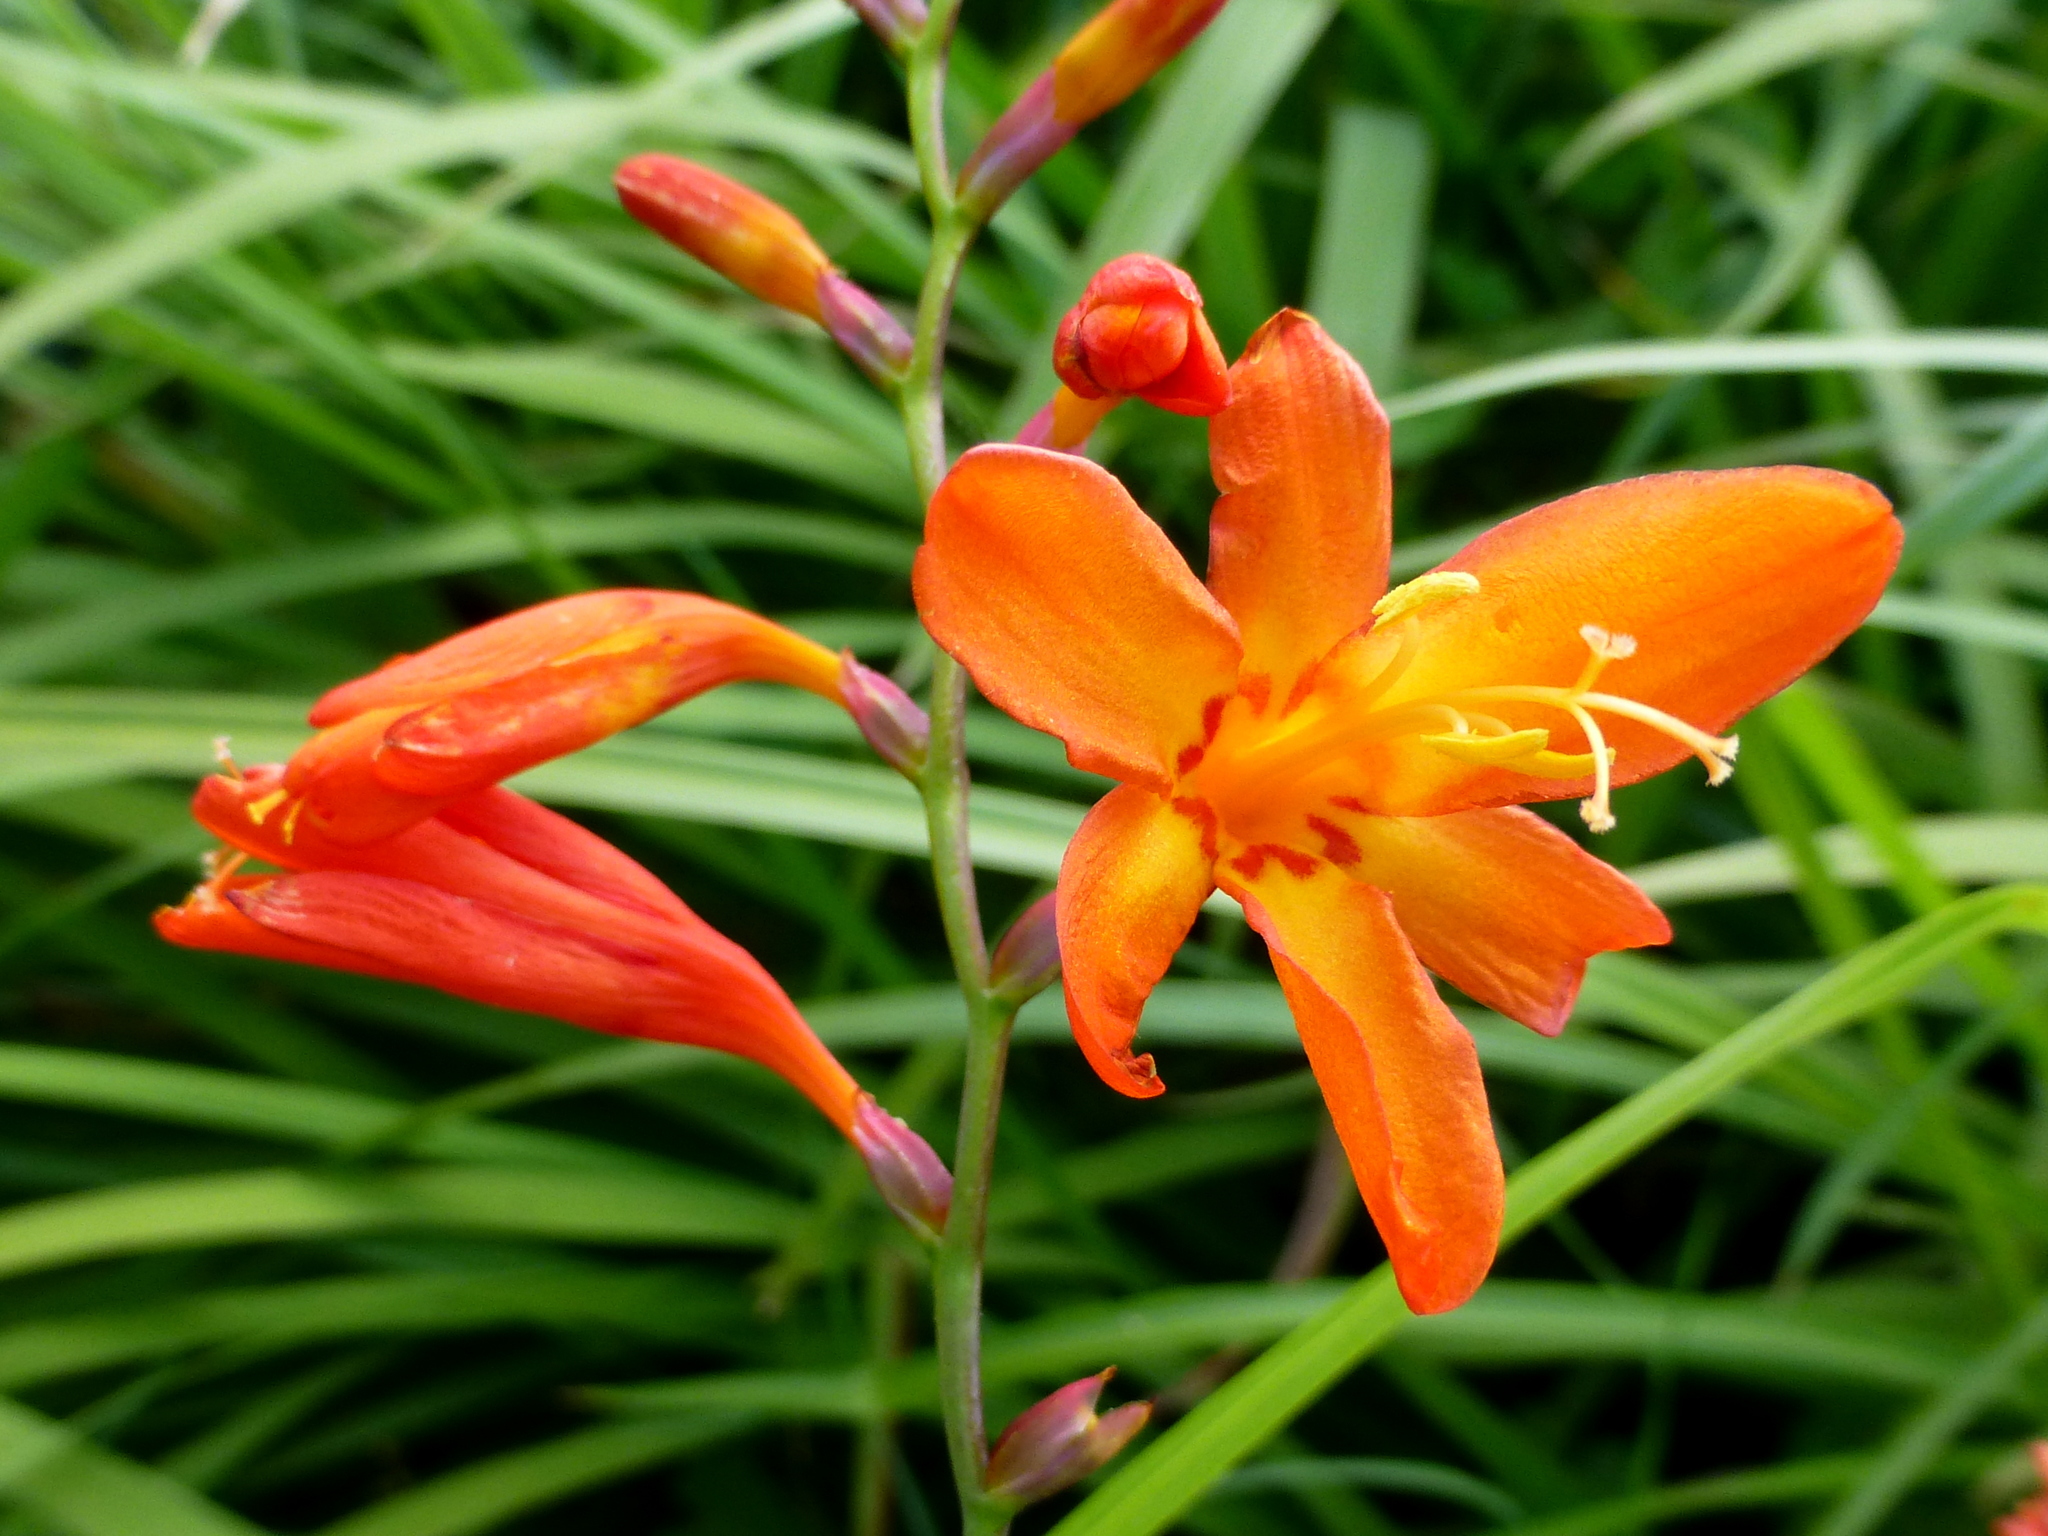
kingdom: Plantae
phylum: Tracheophyta
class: Liliopsida
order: Asparagales
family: Iridaceae
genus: Crocosmia
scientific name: Crocosmia crocosmiiflora
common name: Montbretia
